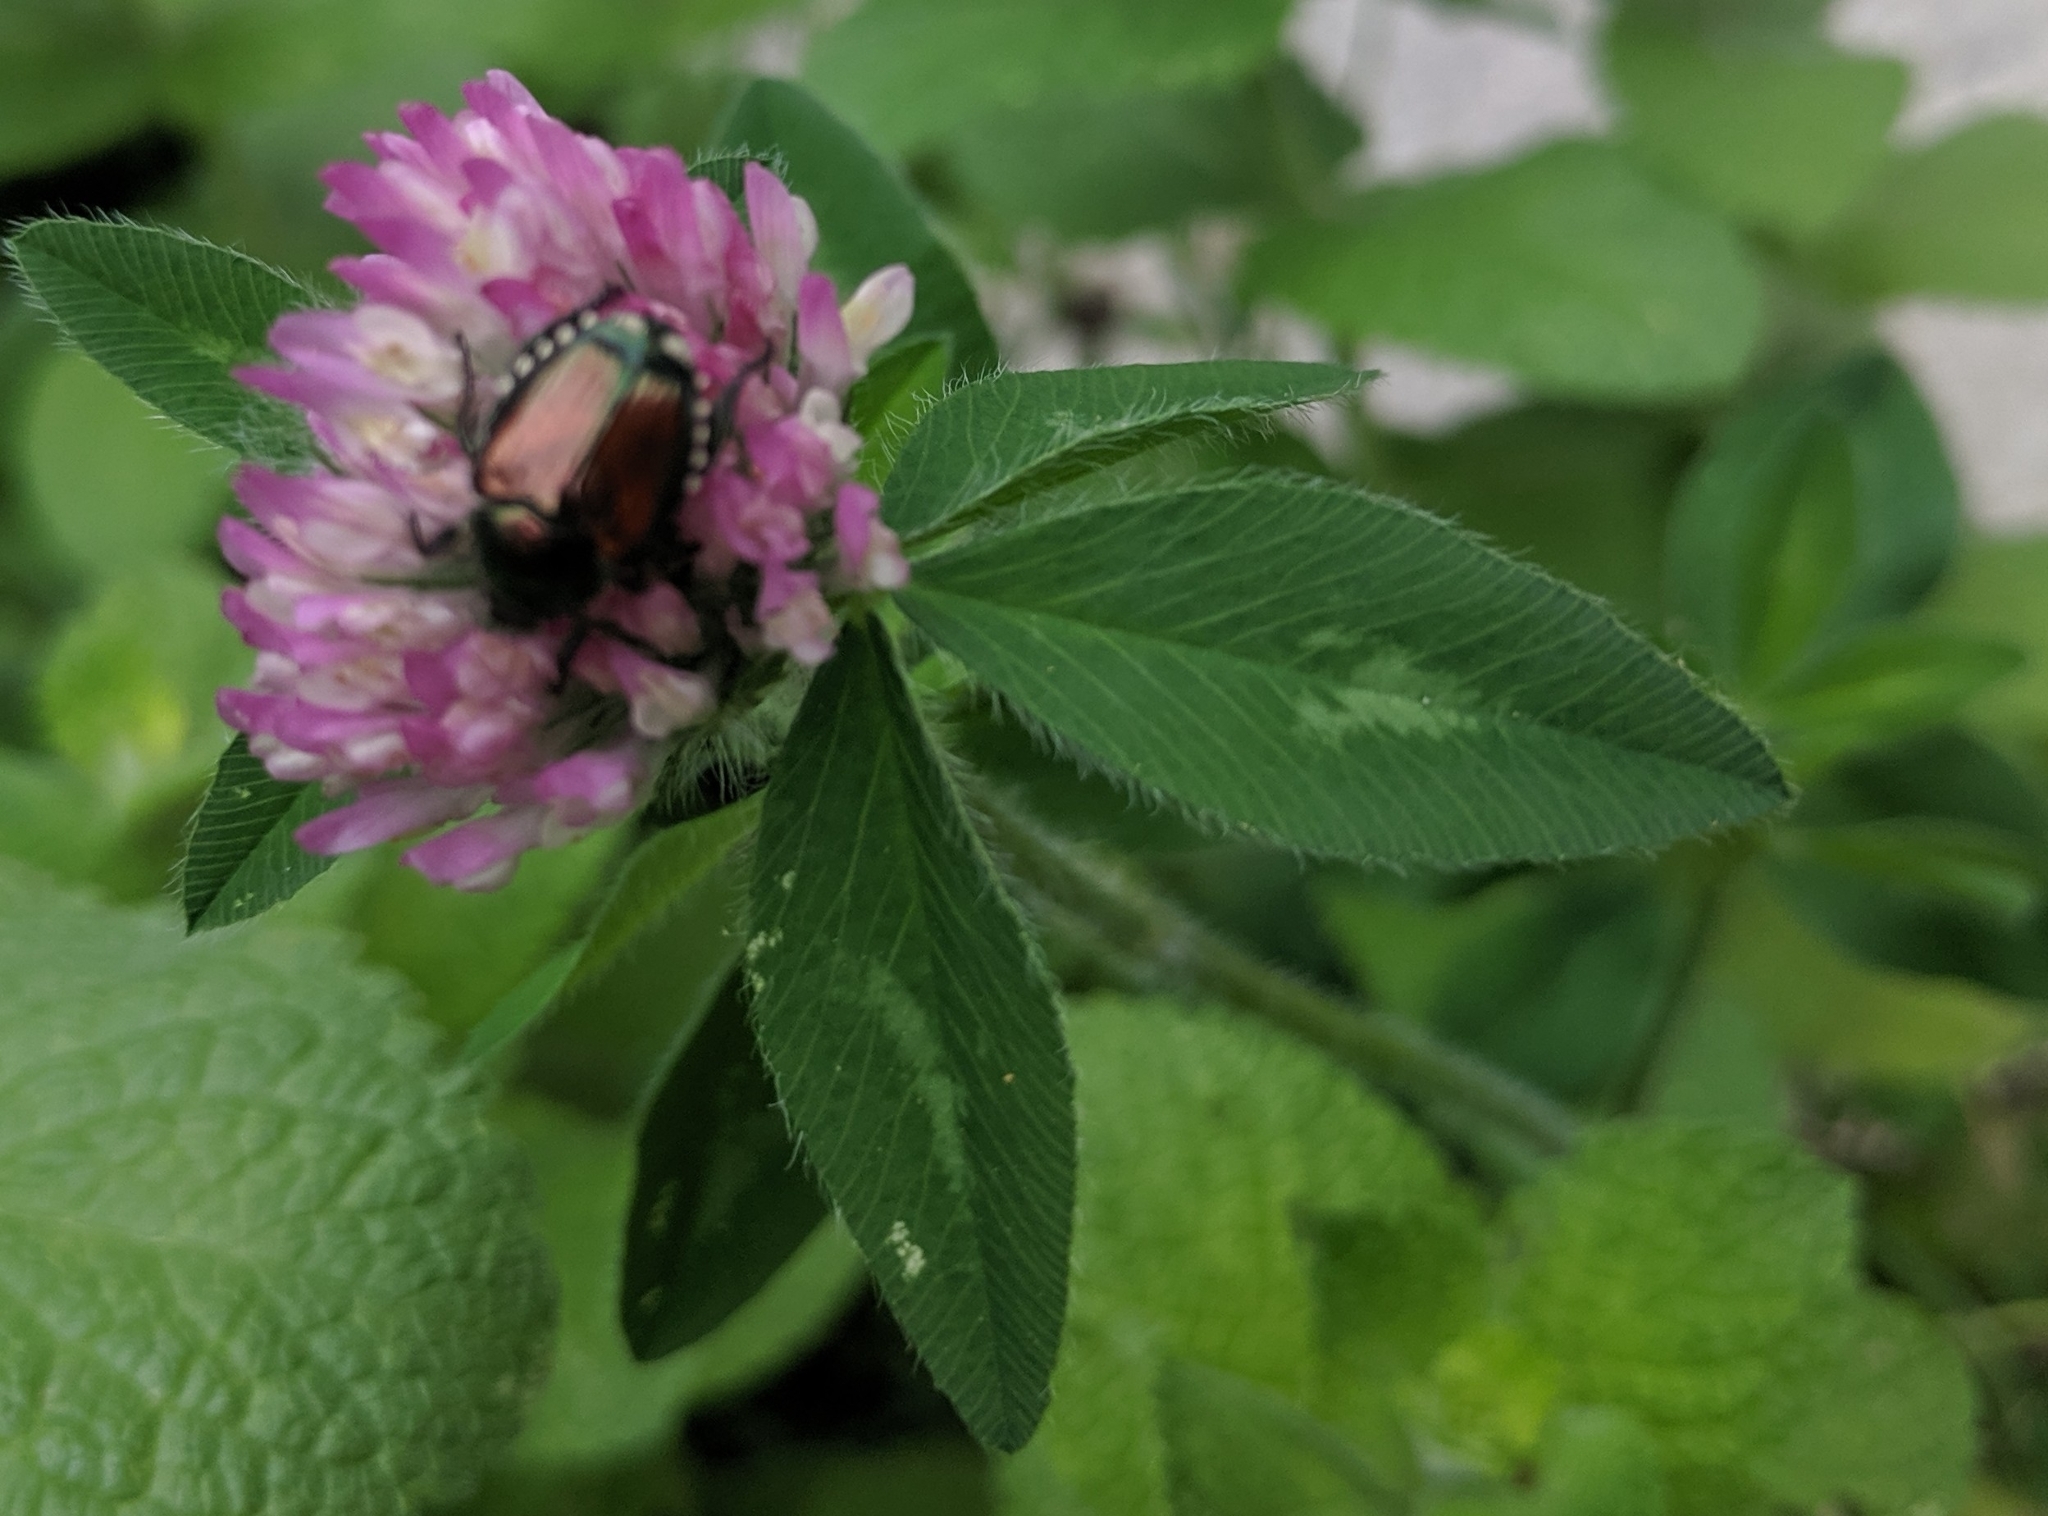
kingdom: Animalia
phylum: Arthropoda
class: Insecta
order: Coleoptera
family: Scarabaeidae
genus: Popillia
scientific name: Popillia japonica
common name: Japanese beetle
